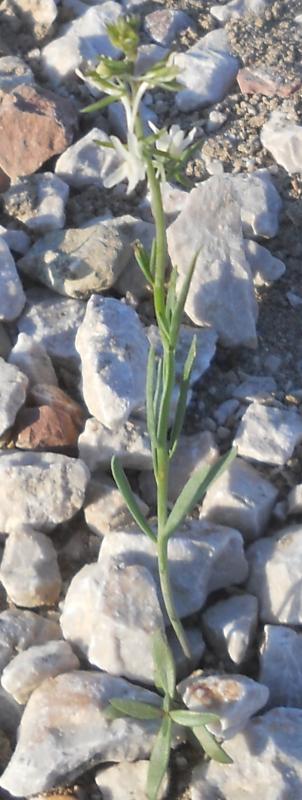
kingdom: Plantae
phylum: Tracheophyta
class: Magnoliopsida
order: Lamiales
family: Plantaginaceae
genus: Linaria
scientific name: Linaria chalepensis
